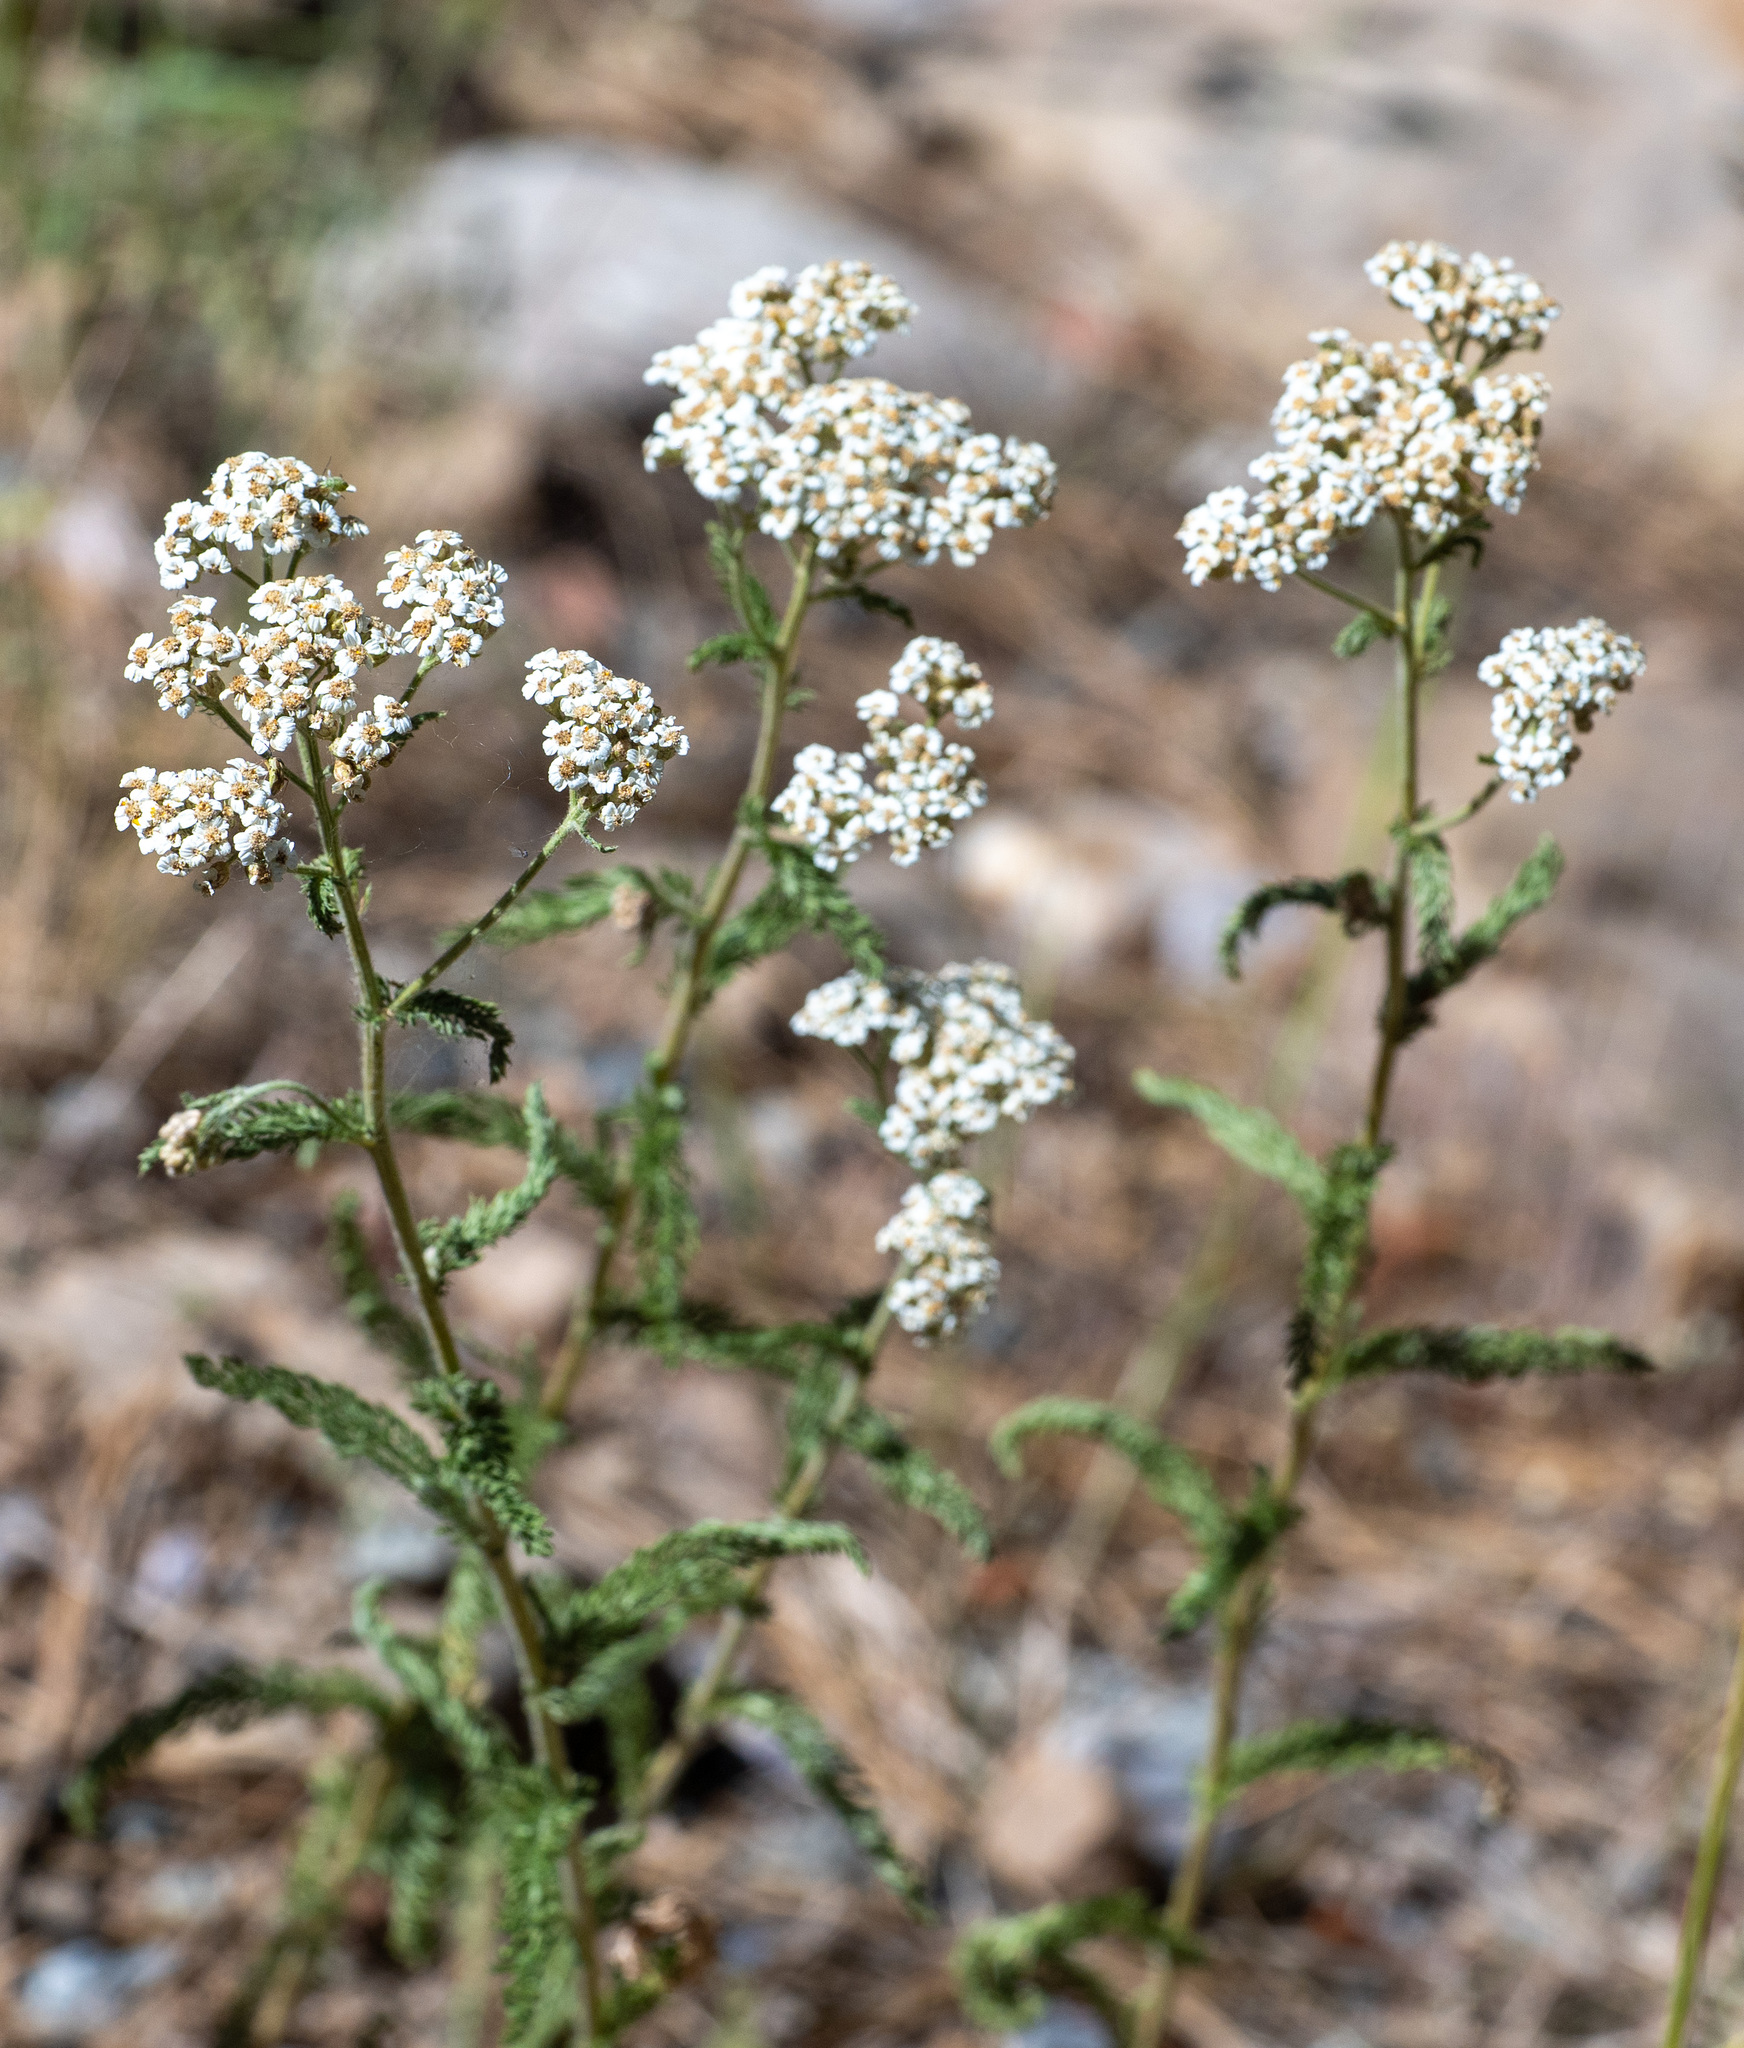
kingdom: Plantae
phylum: Tracheophyta
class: Magnoliopsida
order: Asterales
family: Asteraceae
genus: Achillea
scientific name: Achillea millefolium
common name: Yarrow
